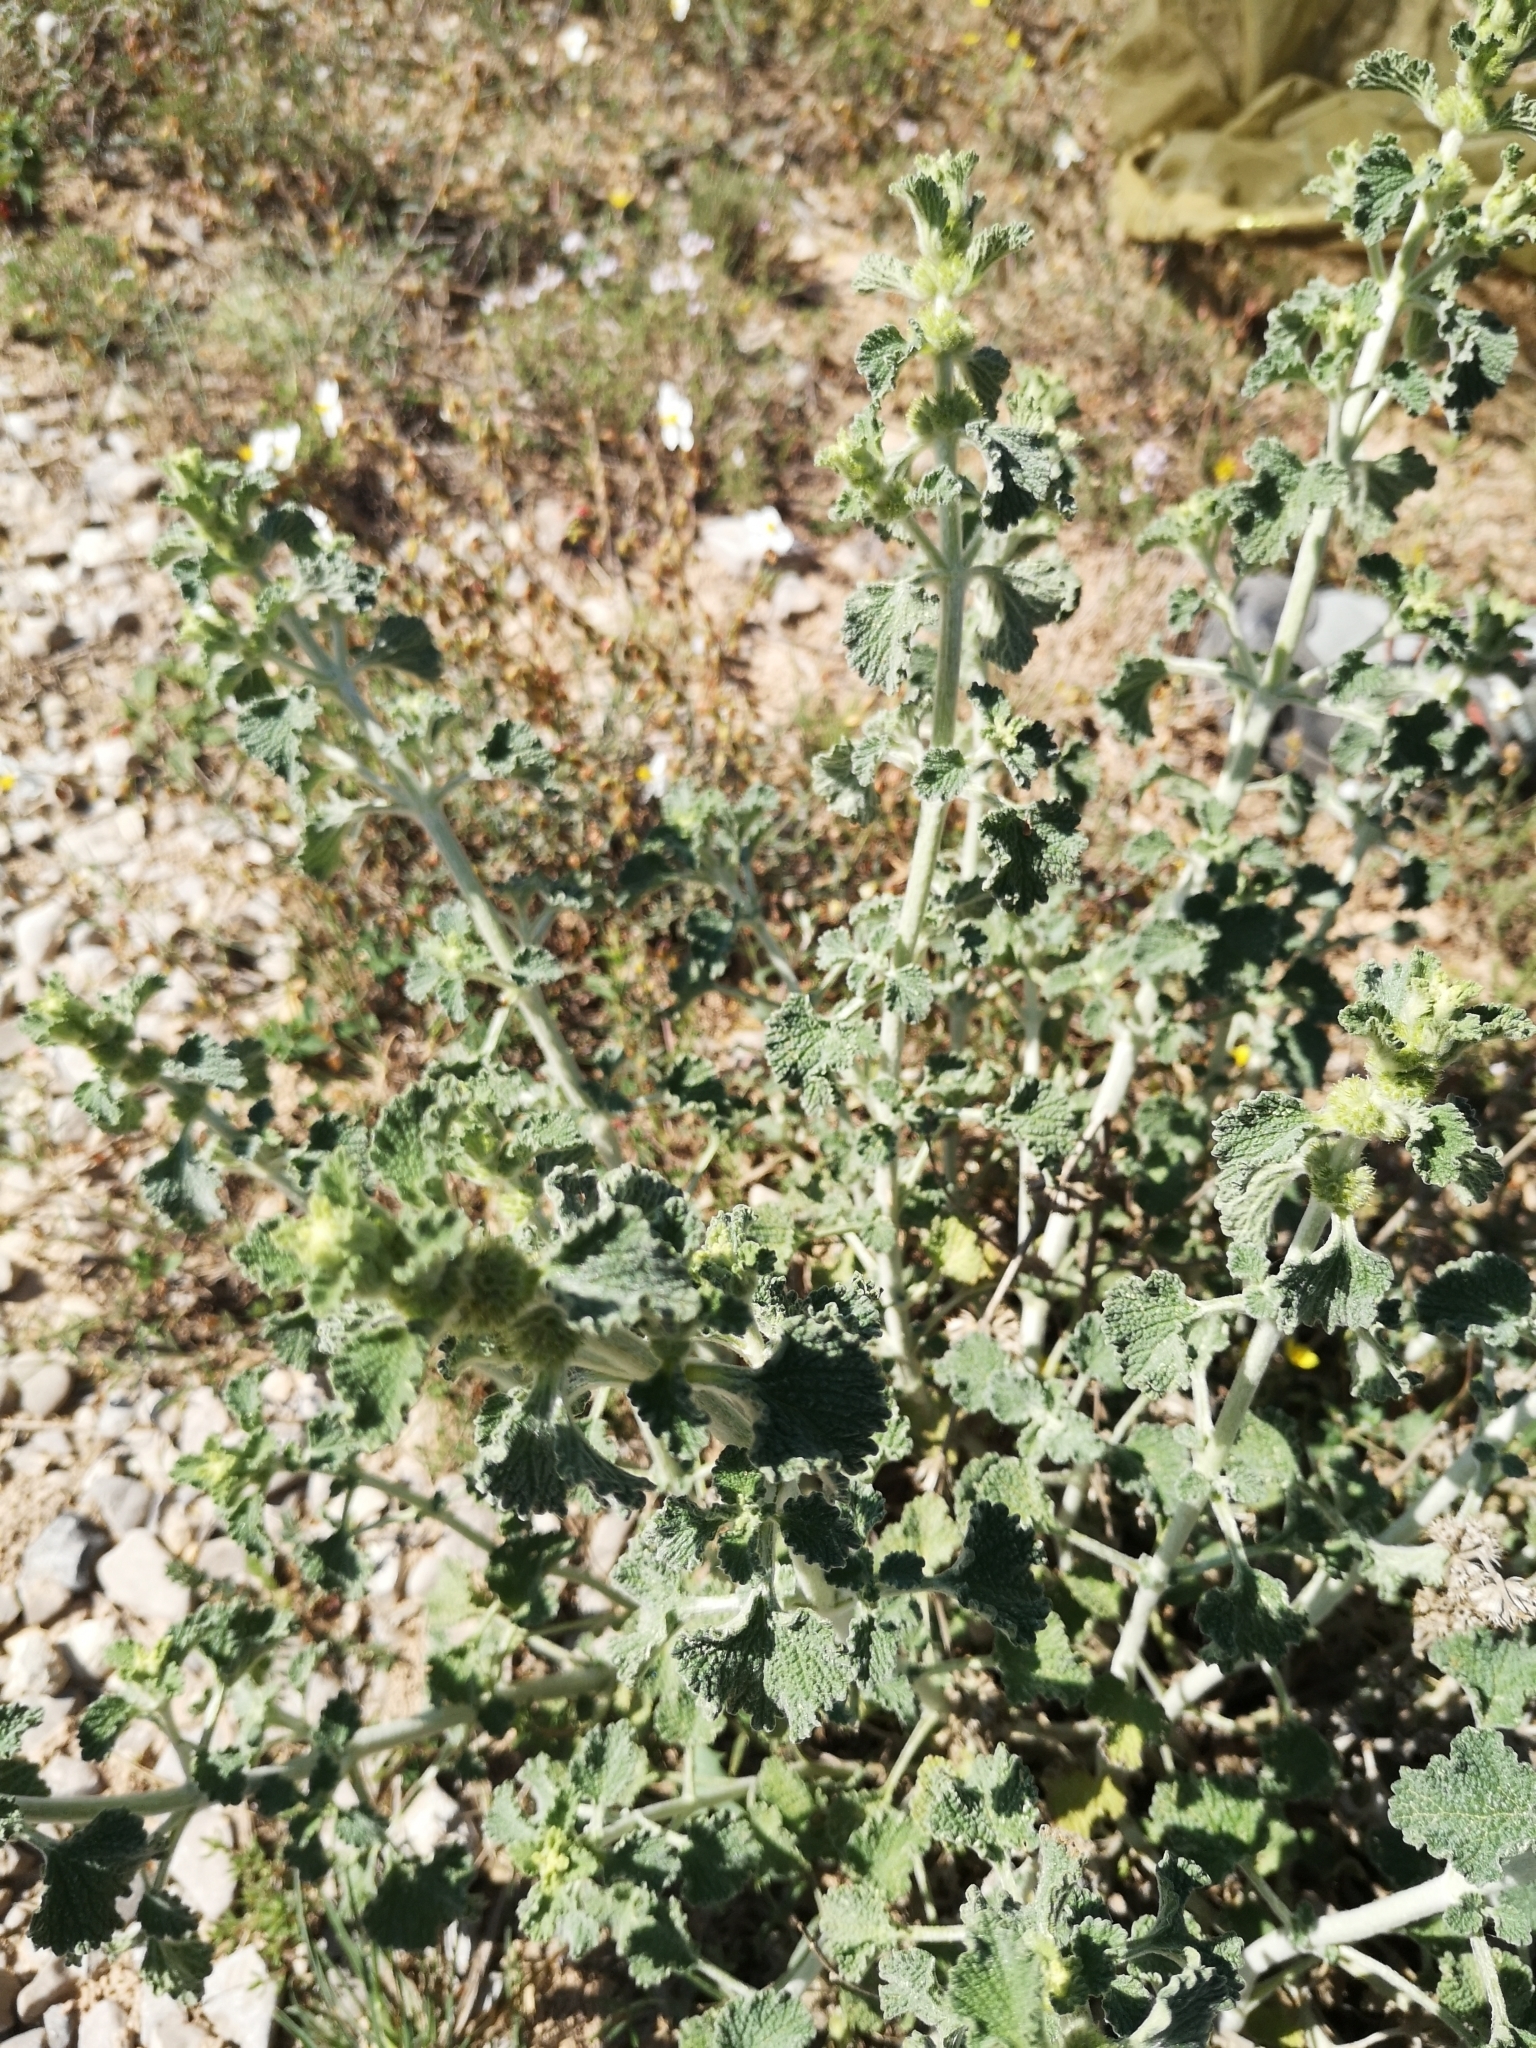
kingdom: Plantae
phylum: Tracheophyta
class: Magnoliopsida
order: Lamiales
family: Lamiaceae
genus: Marrubium
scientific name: Marrubium vulgare
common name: Horehound
